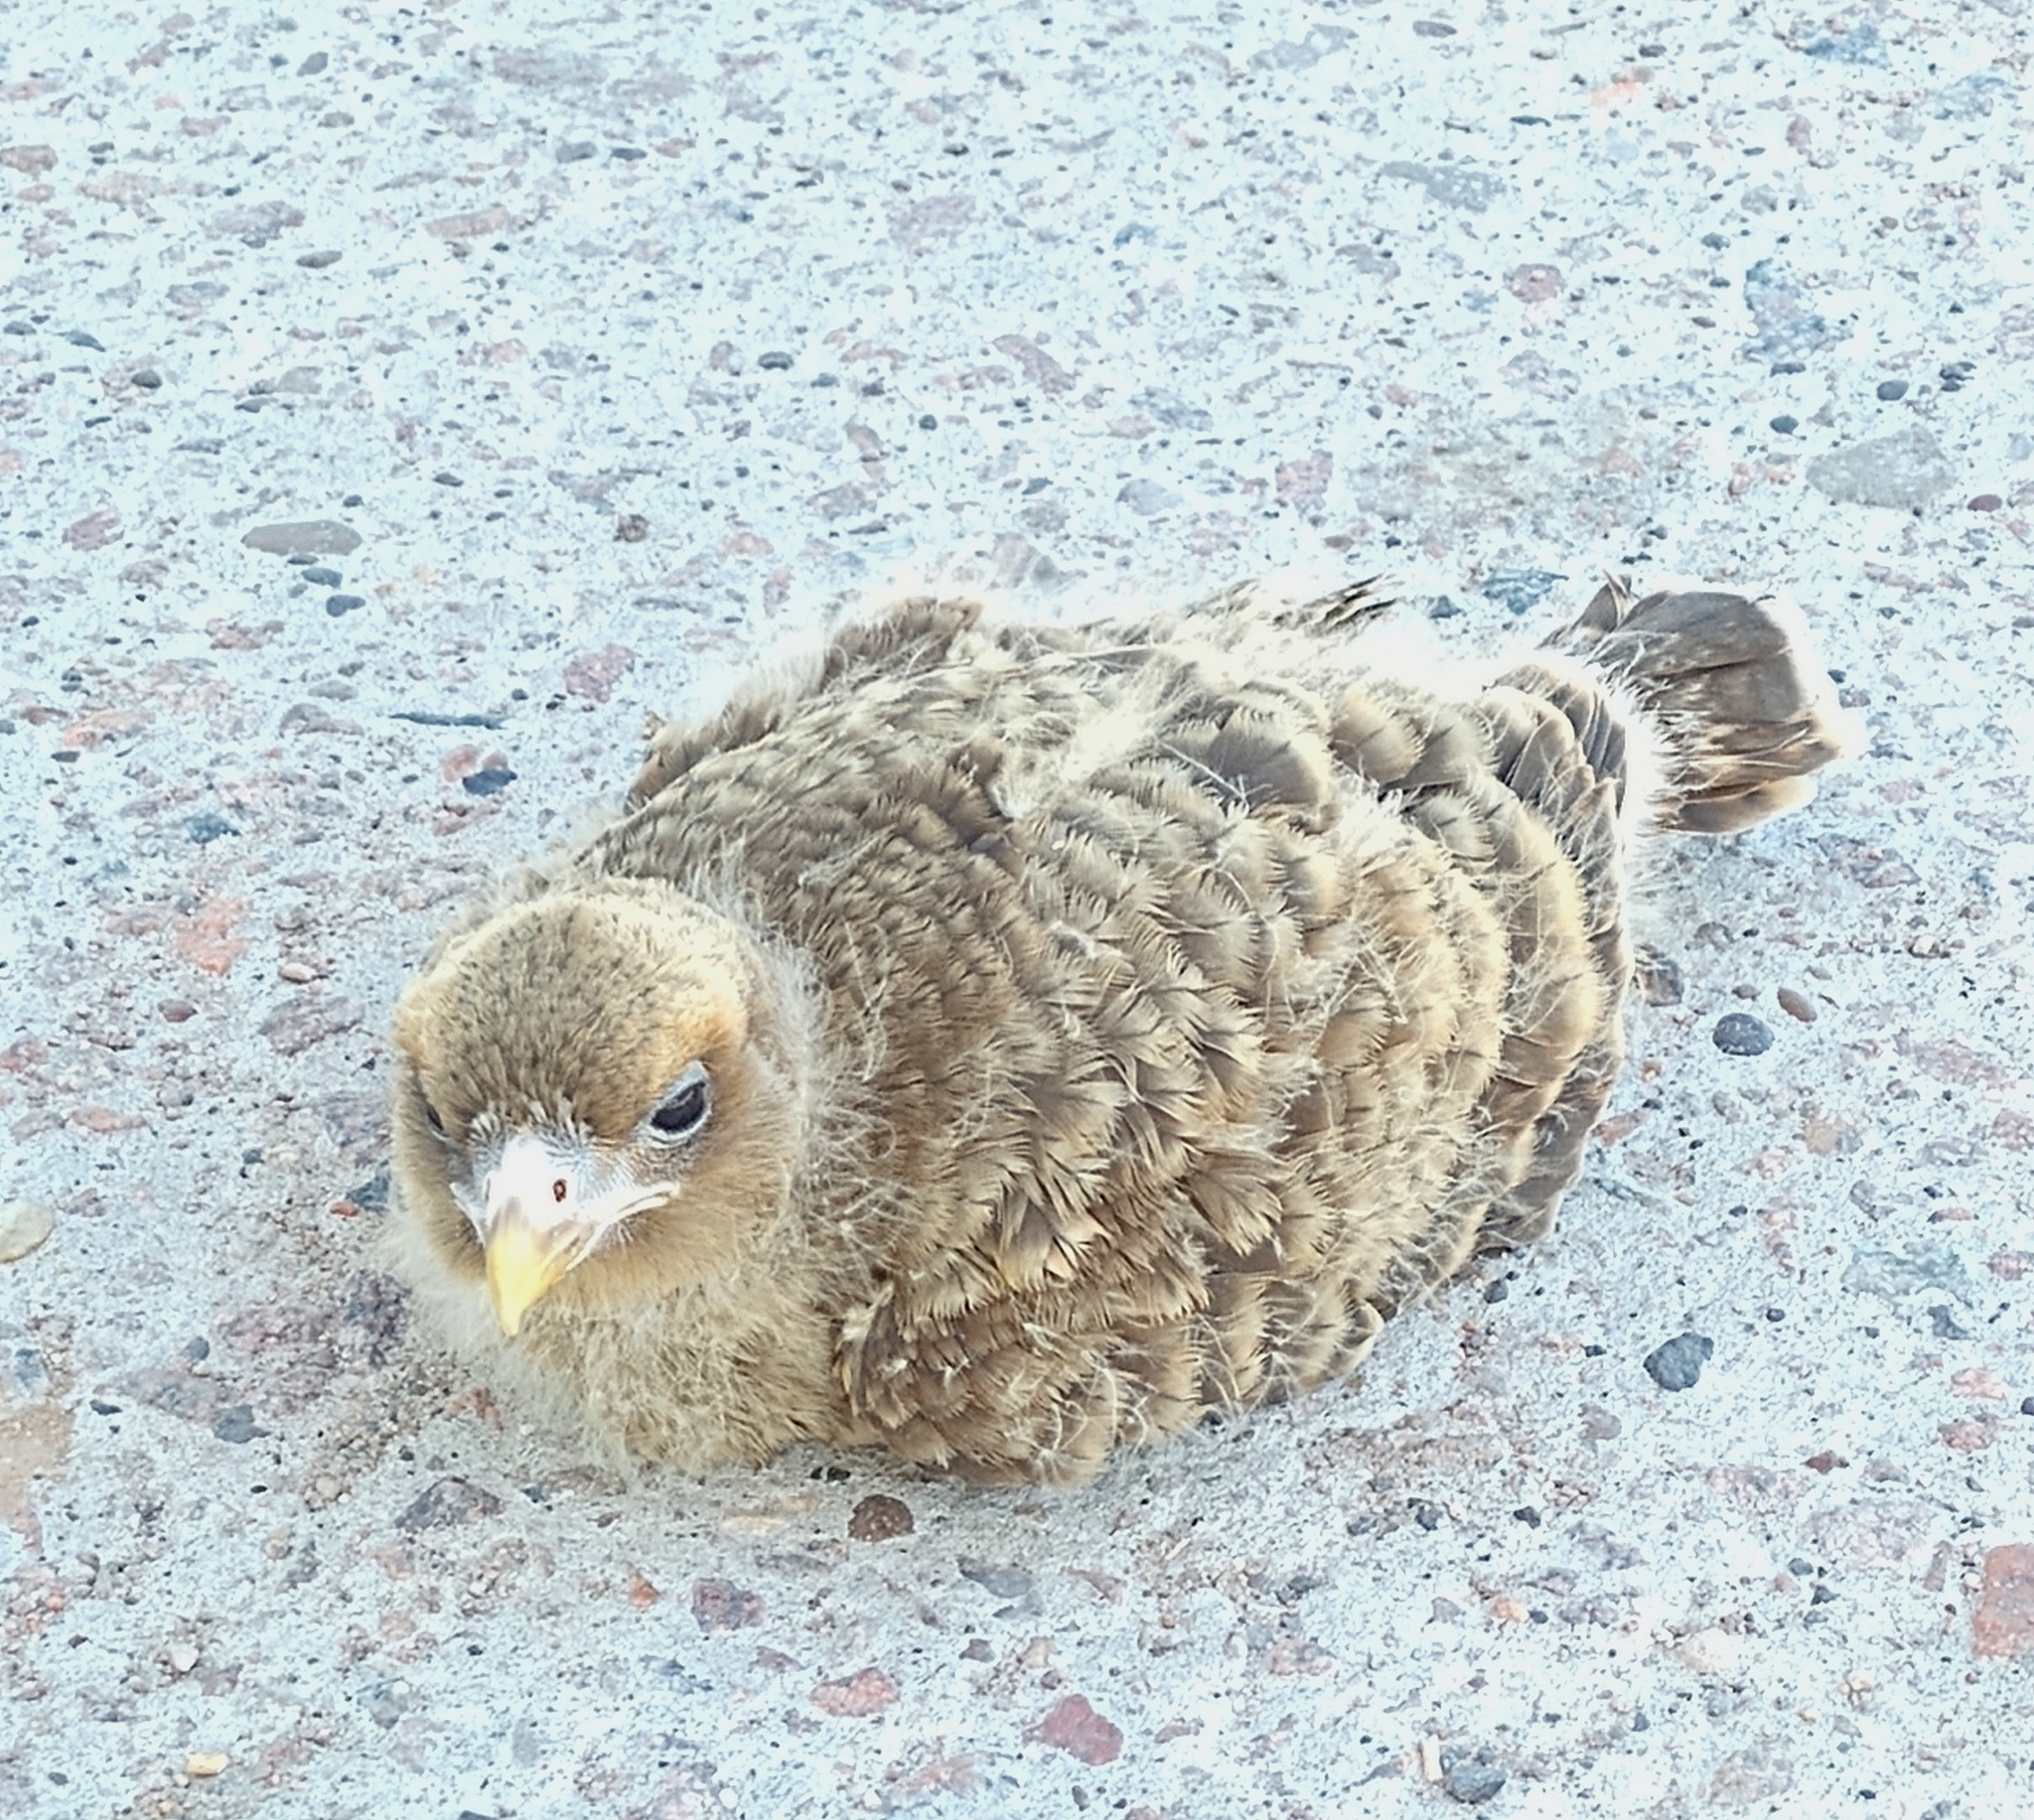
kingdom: Animalia
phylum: Chordata
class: Aves
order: Falconiformes
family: Falconidae
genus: Daptrius
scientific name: Daptrius
